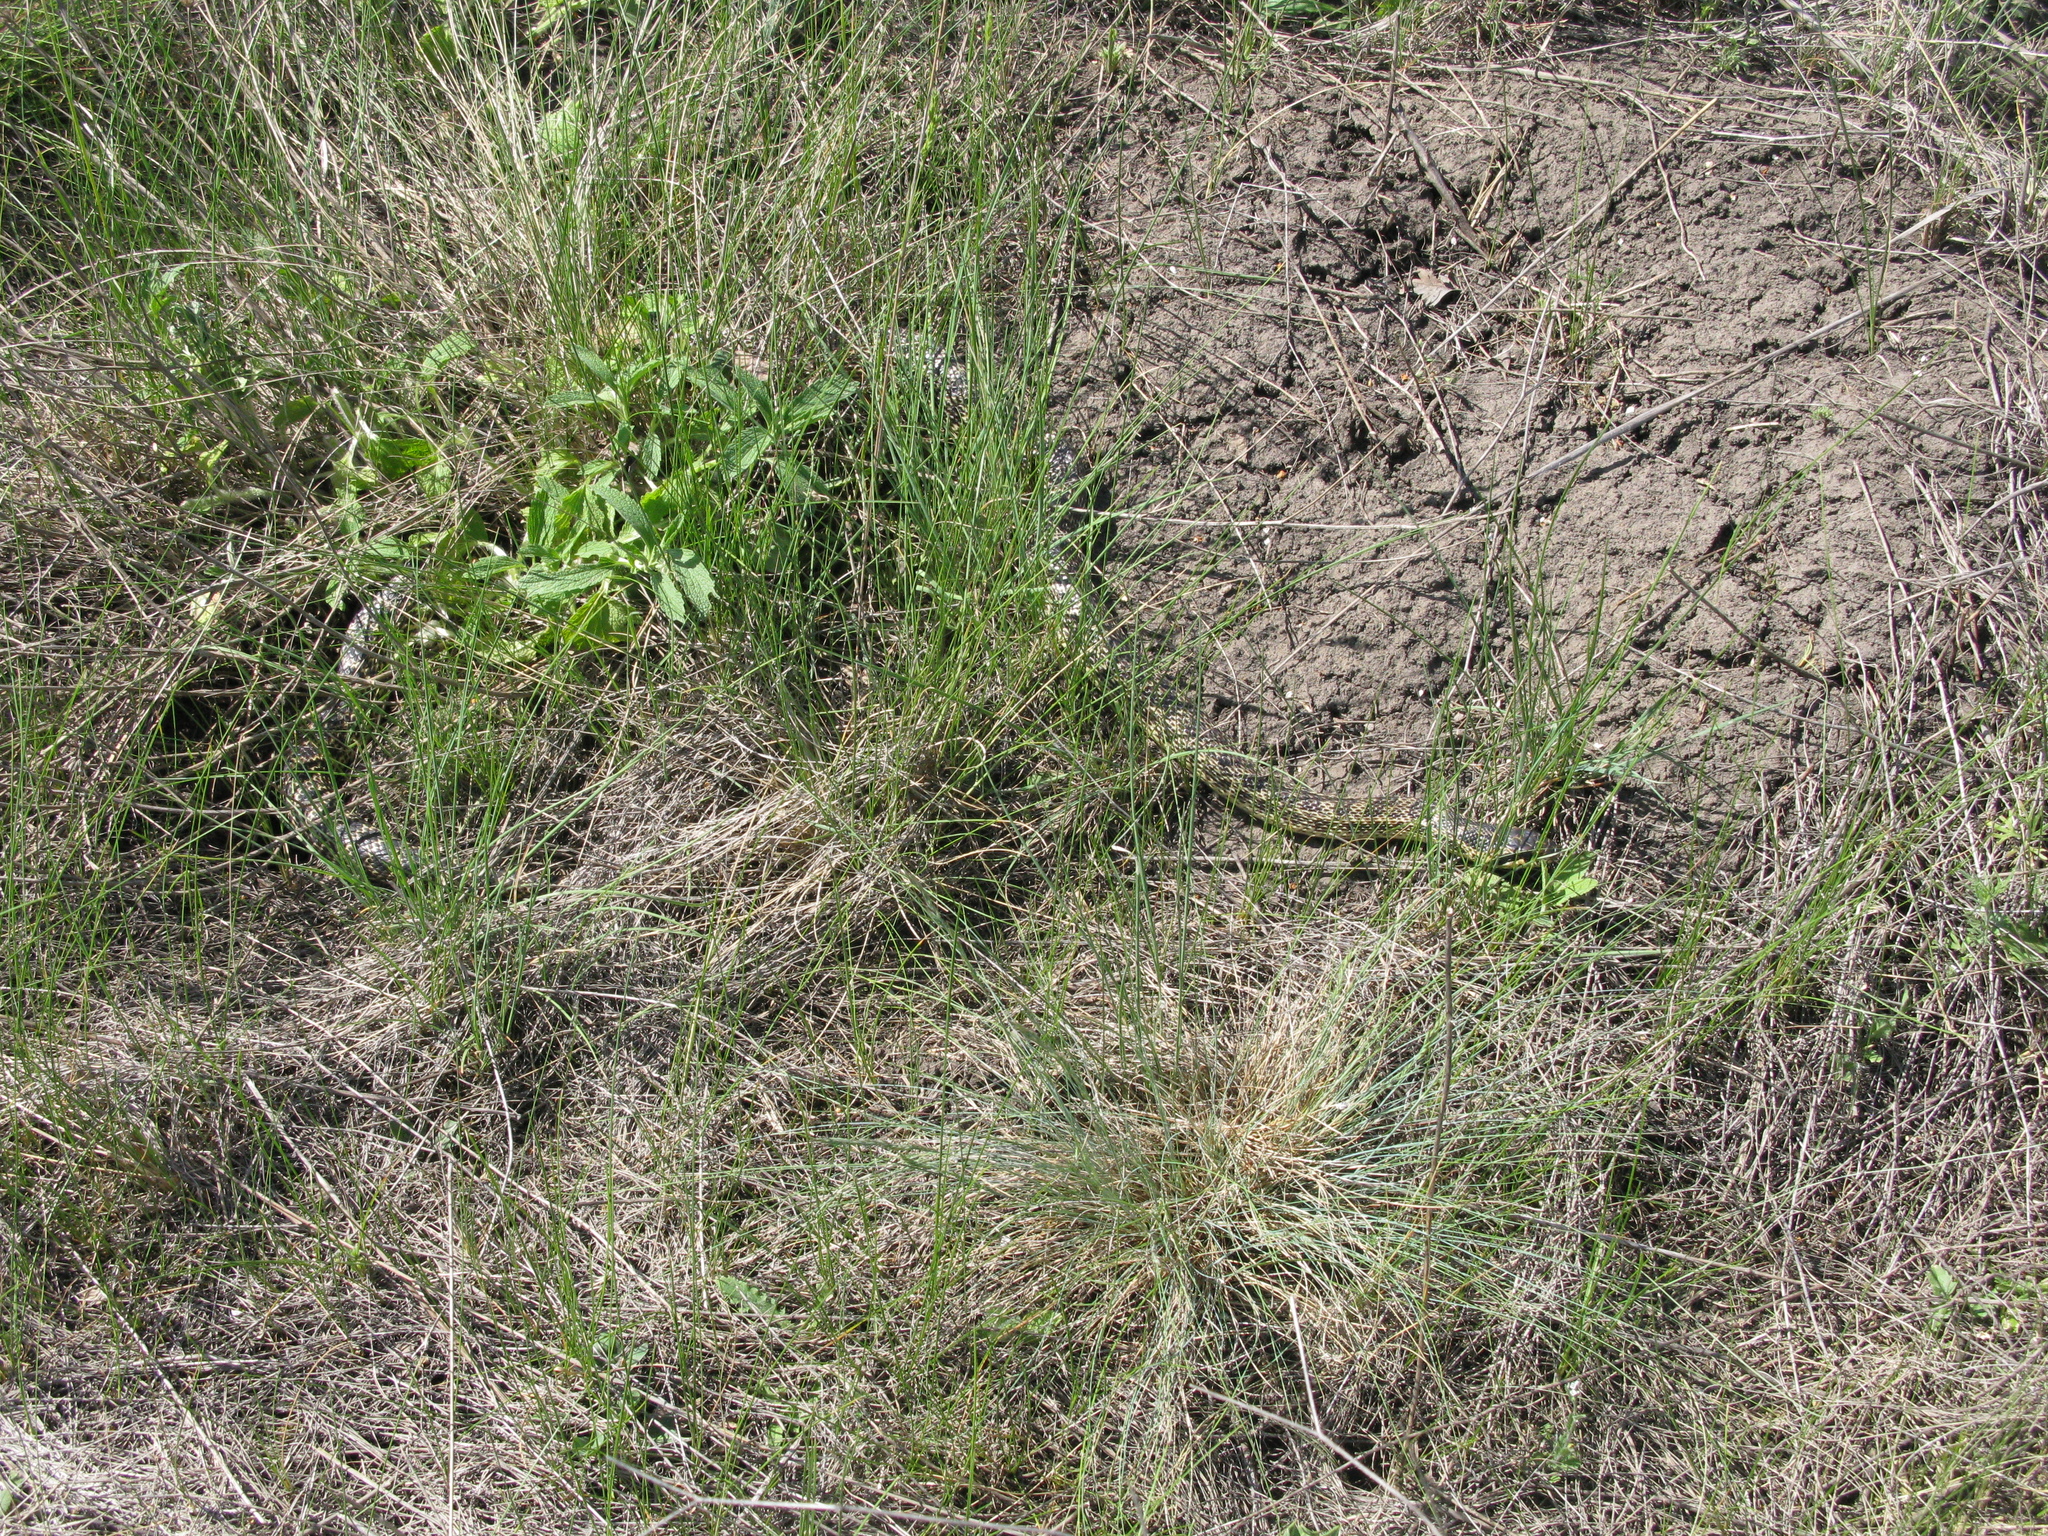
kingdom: Animalia
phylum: Chordata
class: Squamata
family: Colubridae
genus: Elaphe
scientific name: Elaphe sauromates
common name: Eastern four-lined ratsnake
